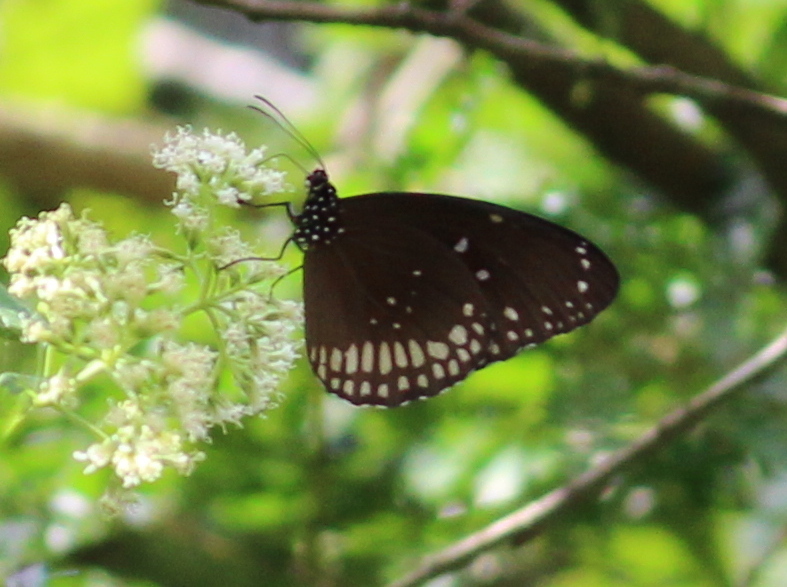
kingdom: Animalia
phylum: Arthropoda
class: Insecta
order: Lepidoptera
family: Nymphalidae
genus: Euploea
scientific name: Euploea core
